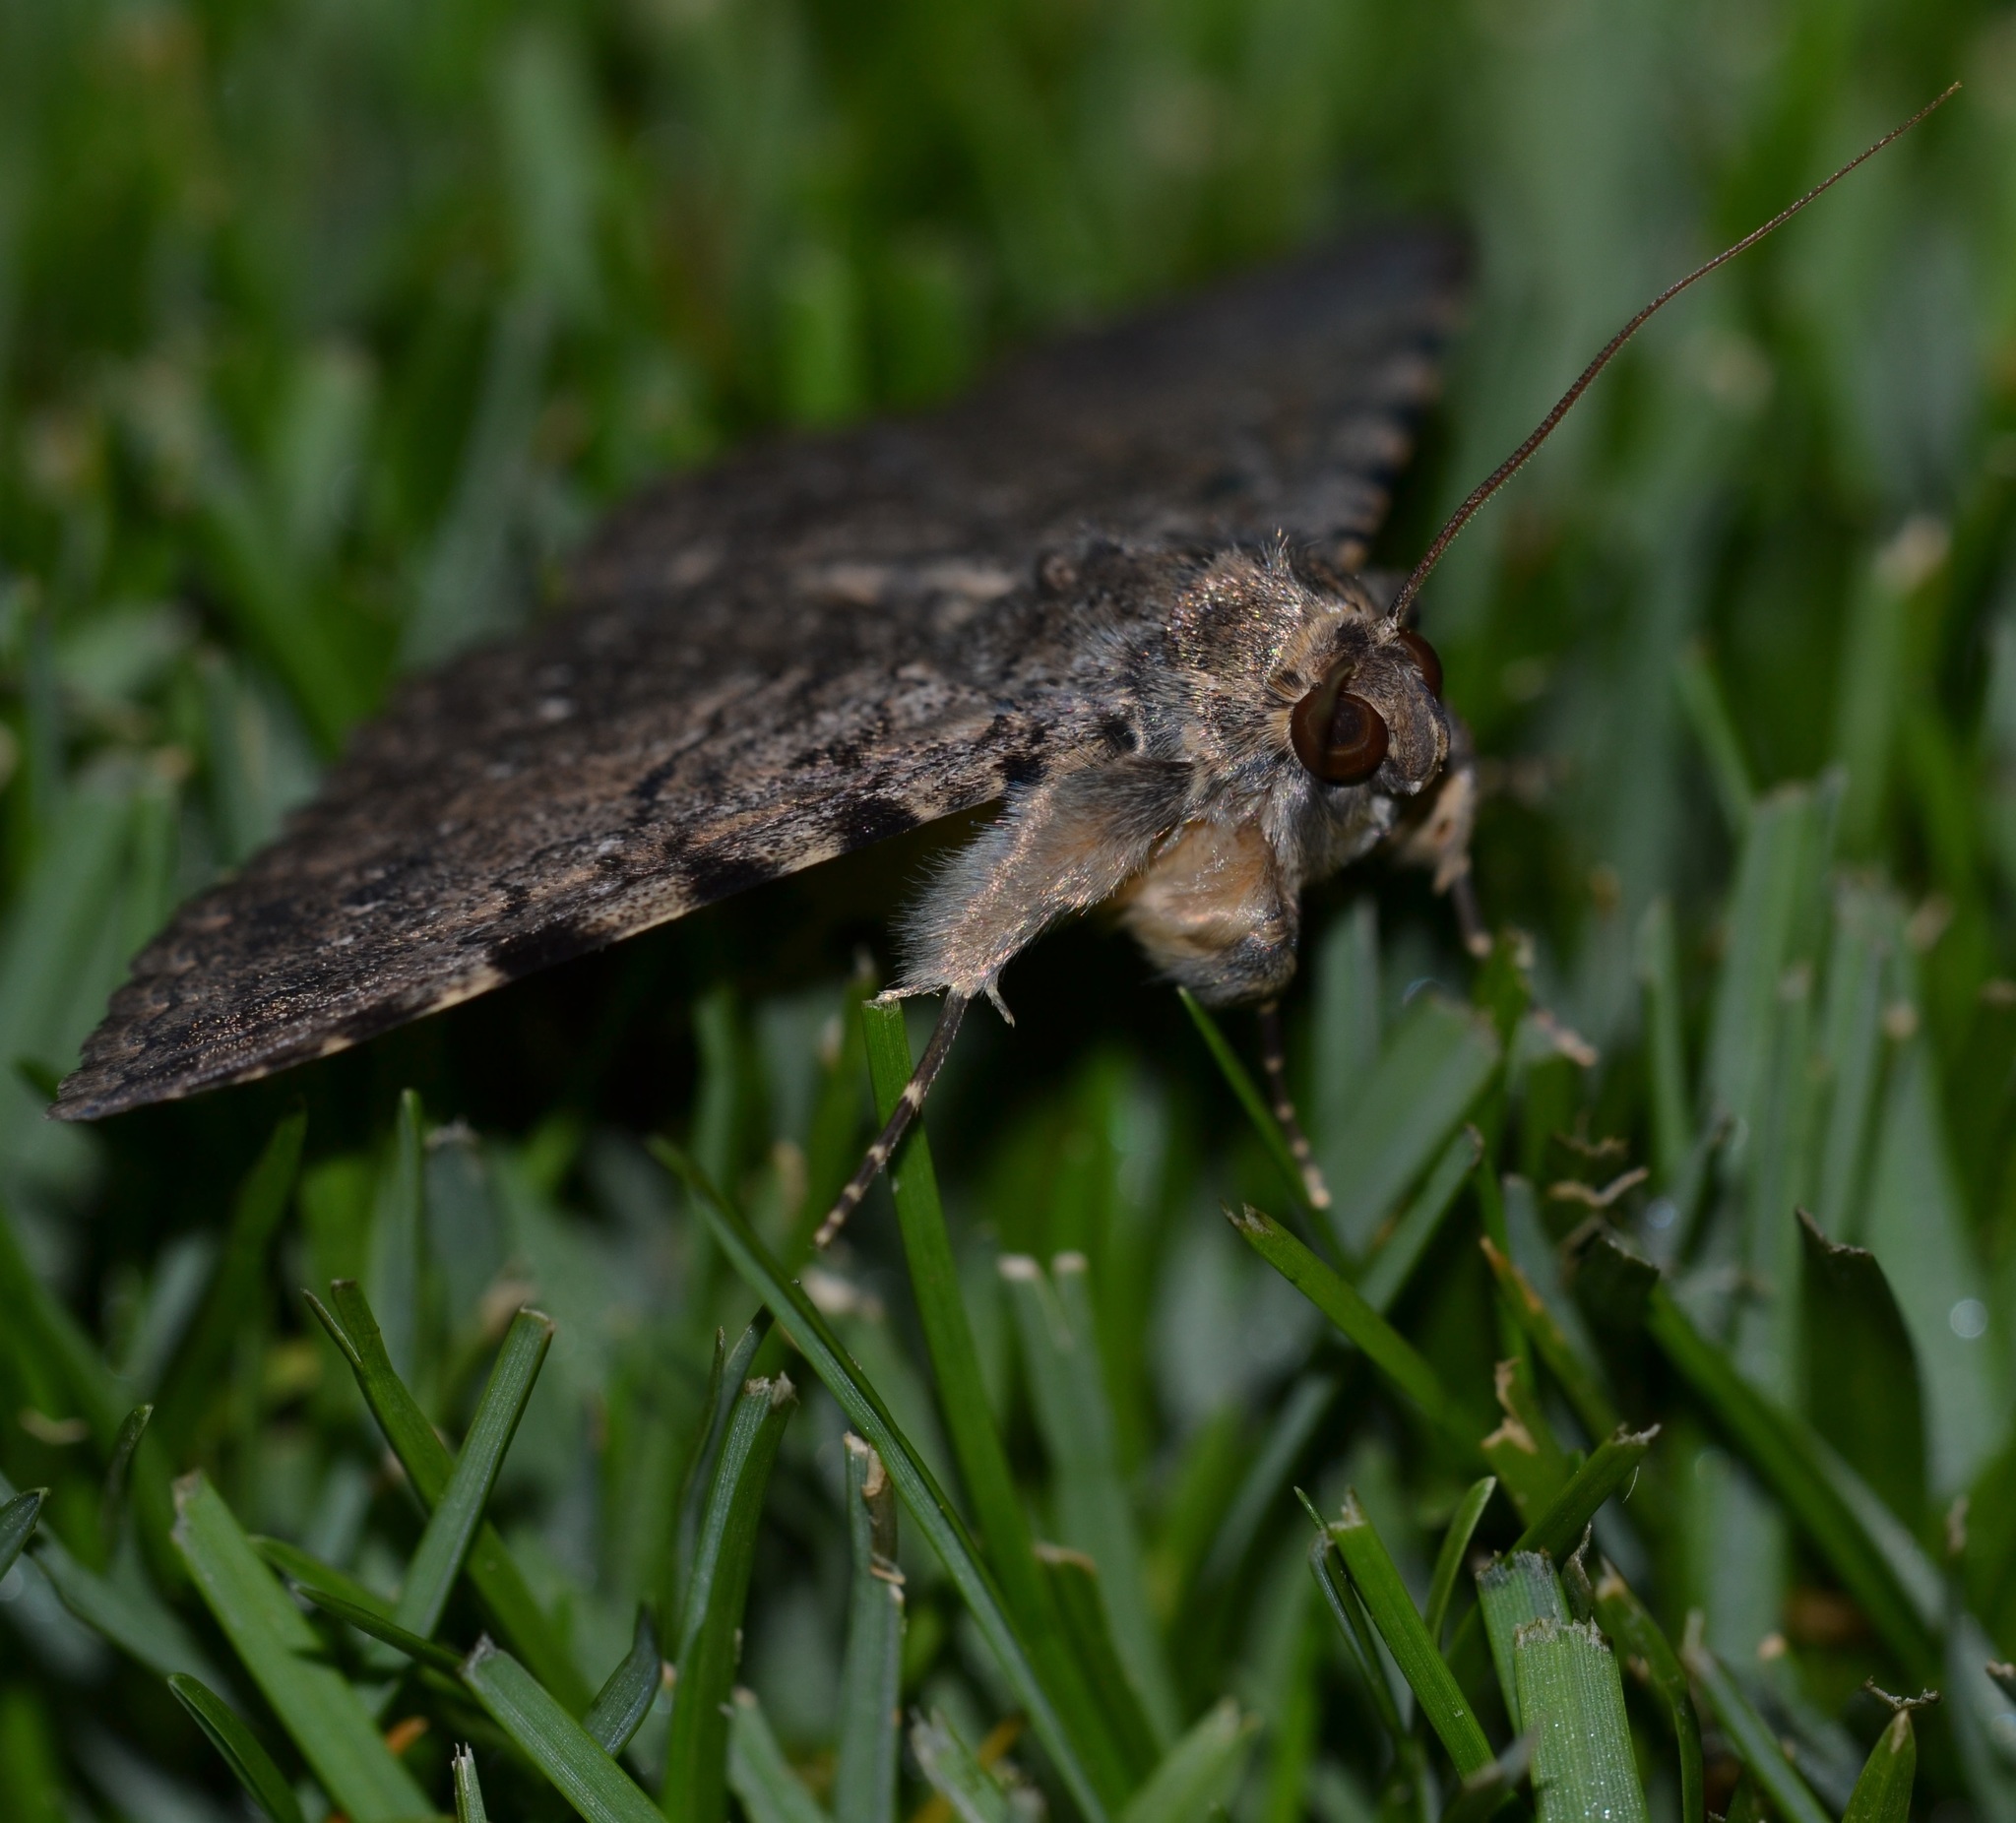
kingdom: Animalia
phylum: Arthropoda
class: Insecta
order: Lepidoptera
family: Erebidae
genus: Polydesma
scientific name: Polydesma boarmoides
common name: Moth
